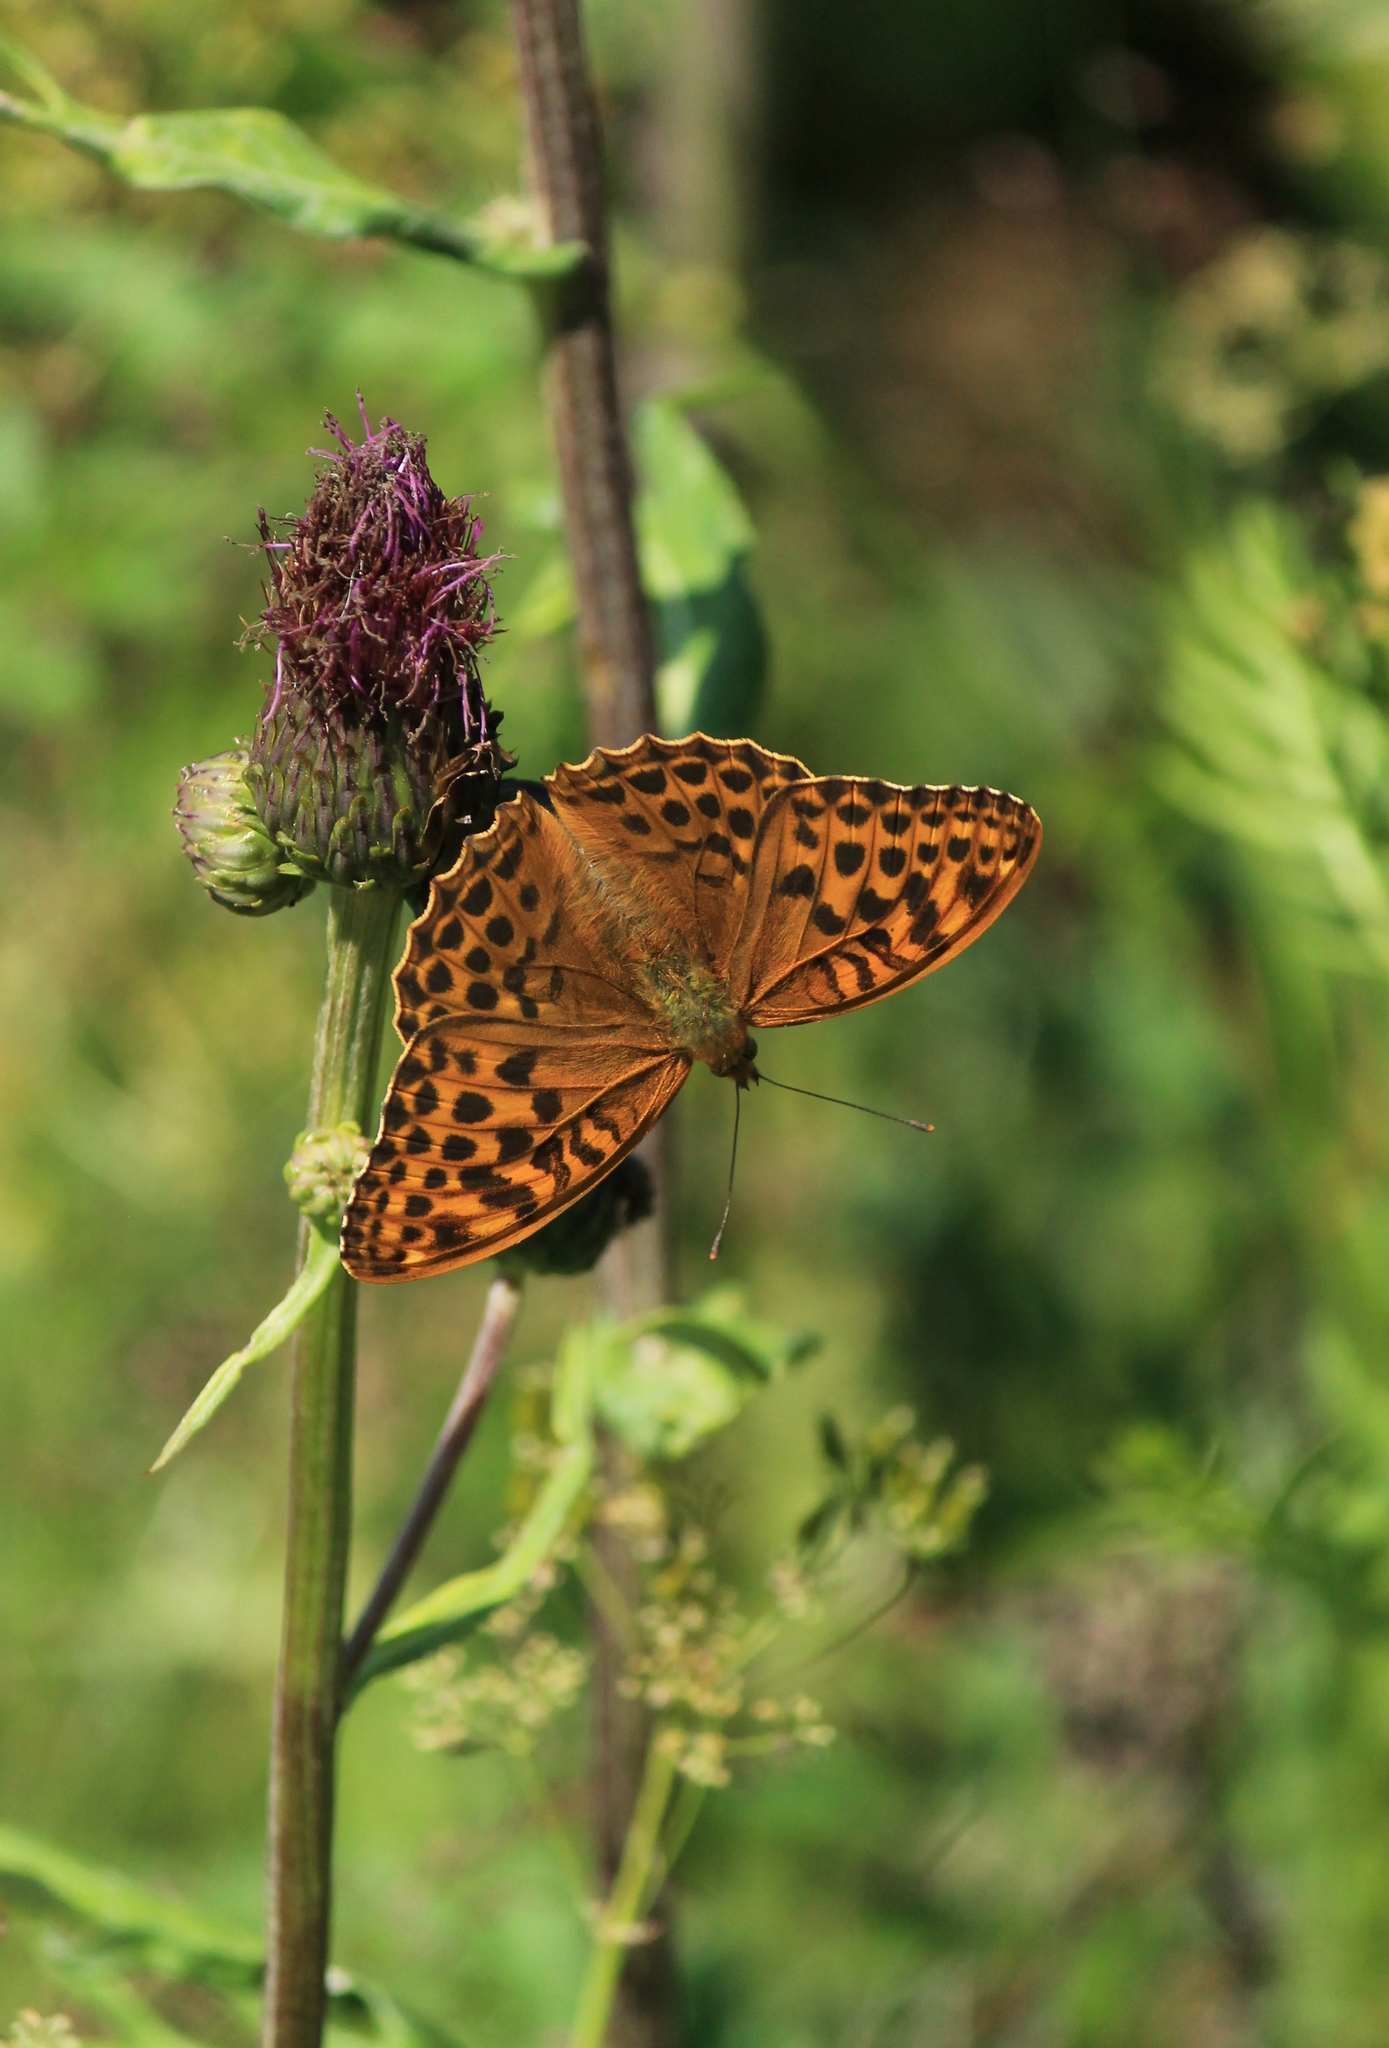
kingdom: Animalia
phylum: Arthropoda
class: Insecta
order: Lepidoptera
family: Nymphalidae
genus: Argynnis
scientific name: Argynnis paphia
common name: Silver-washed fritillary
